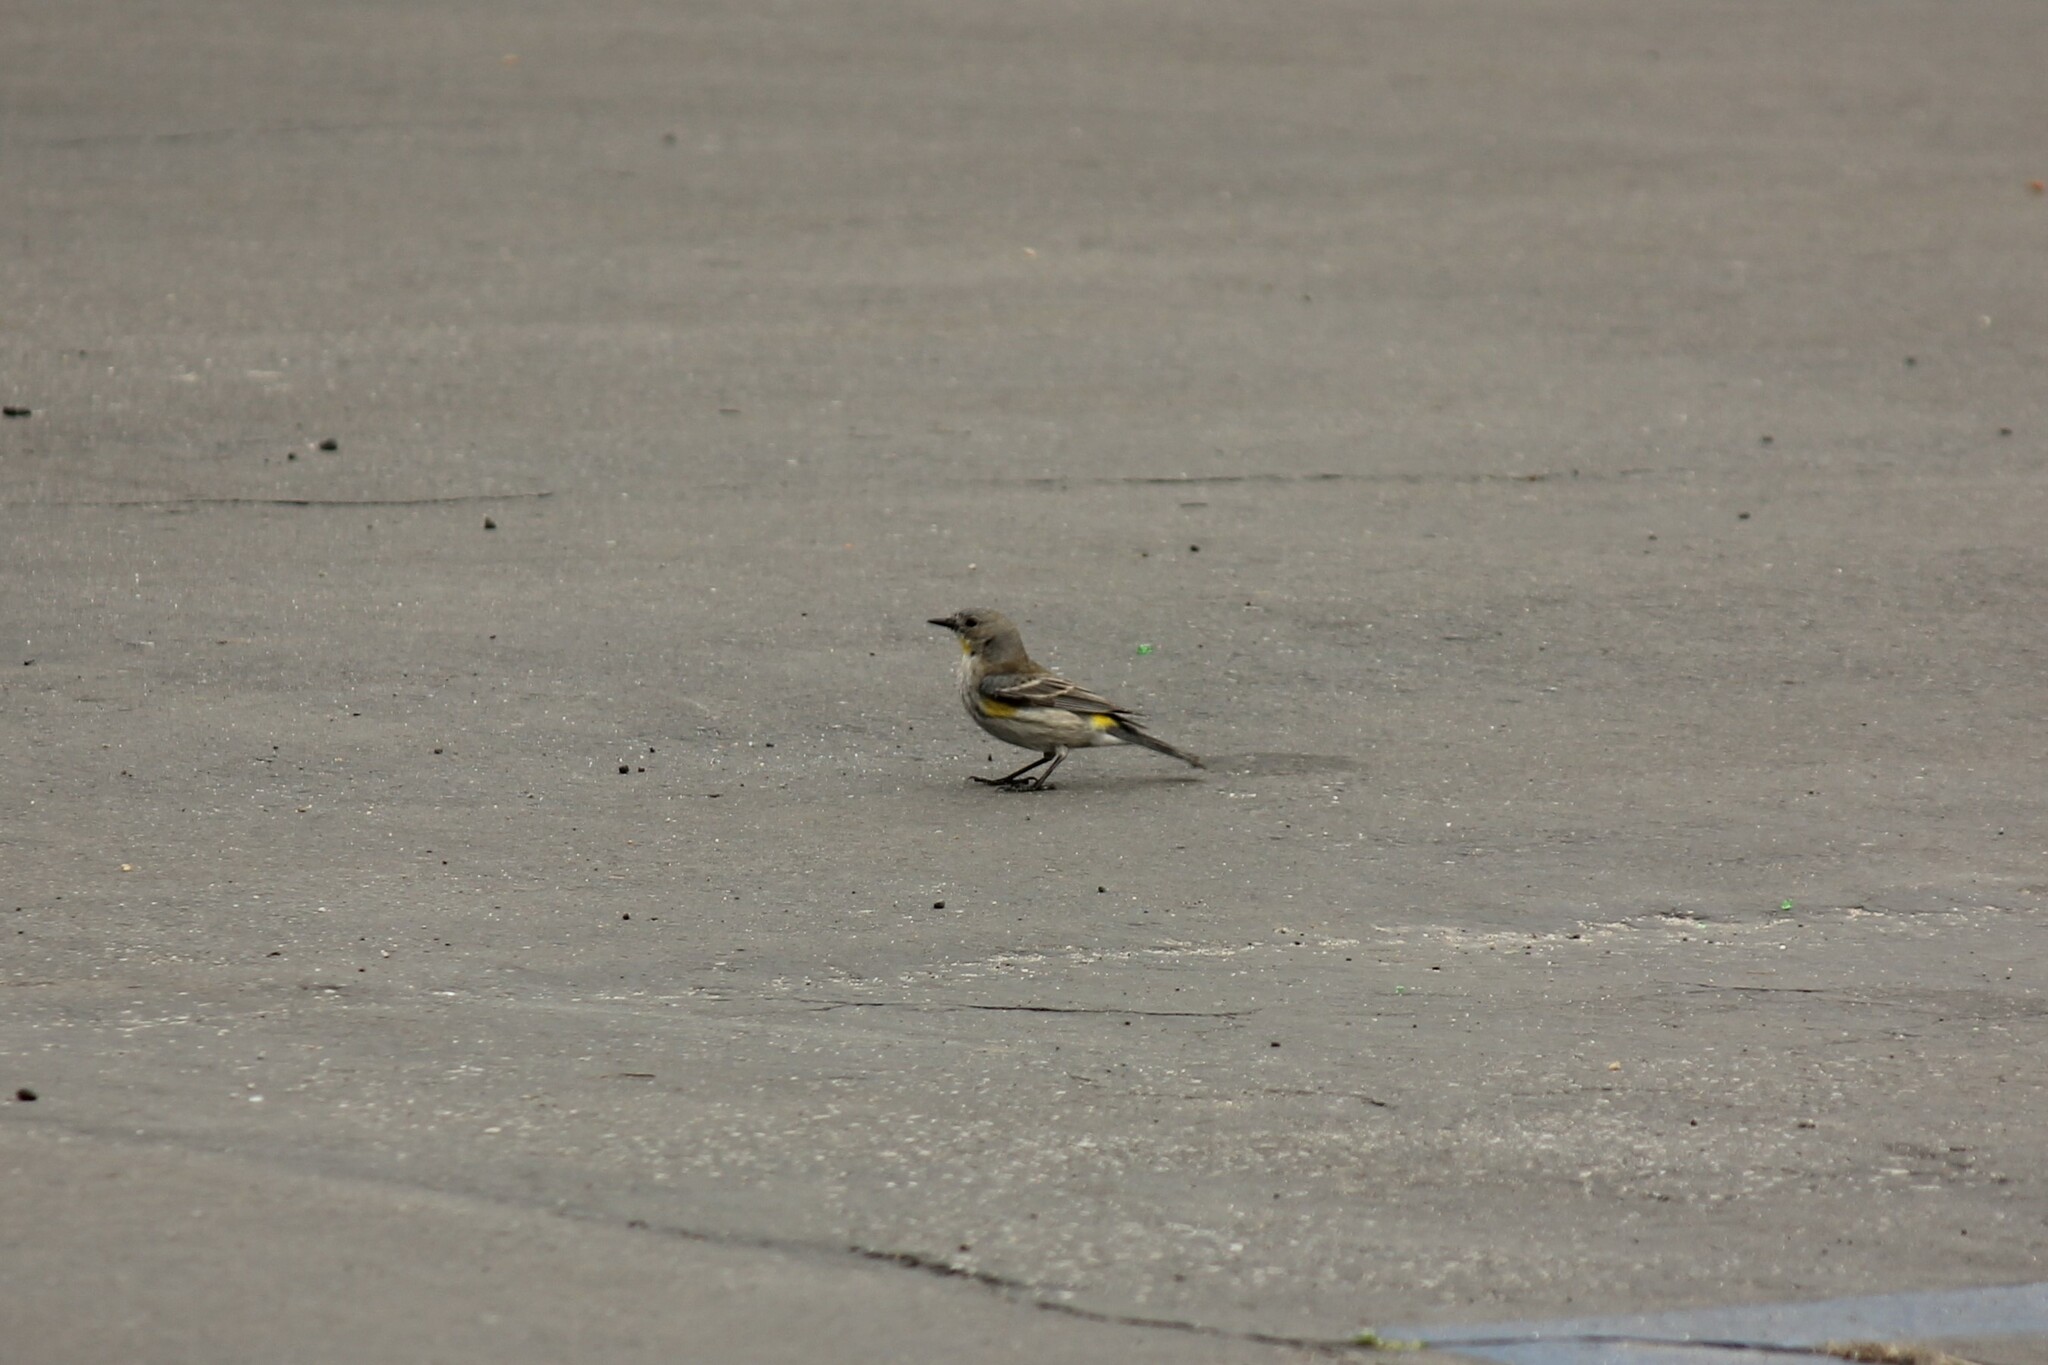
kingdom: Animalia
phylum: Chordata
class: Aves
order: Passeriformes
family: Parulidae
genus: Setophaga
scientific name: Setophaga coronata
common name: Myrtle warbler
